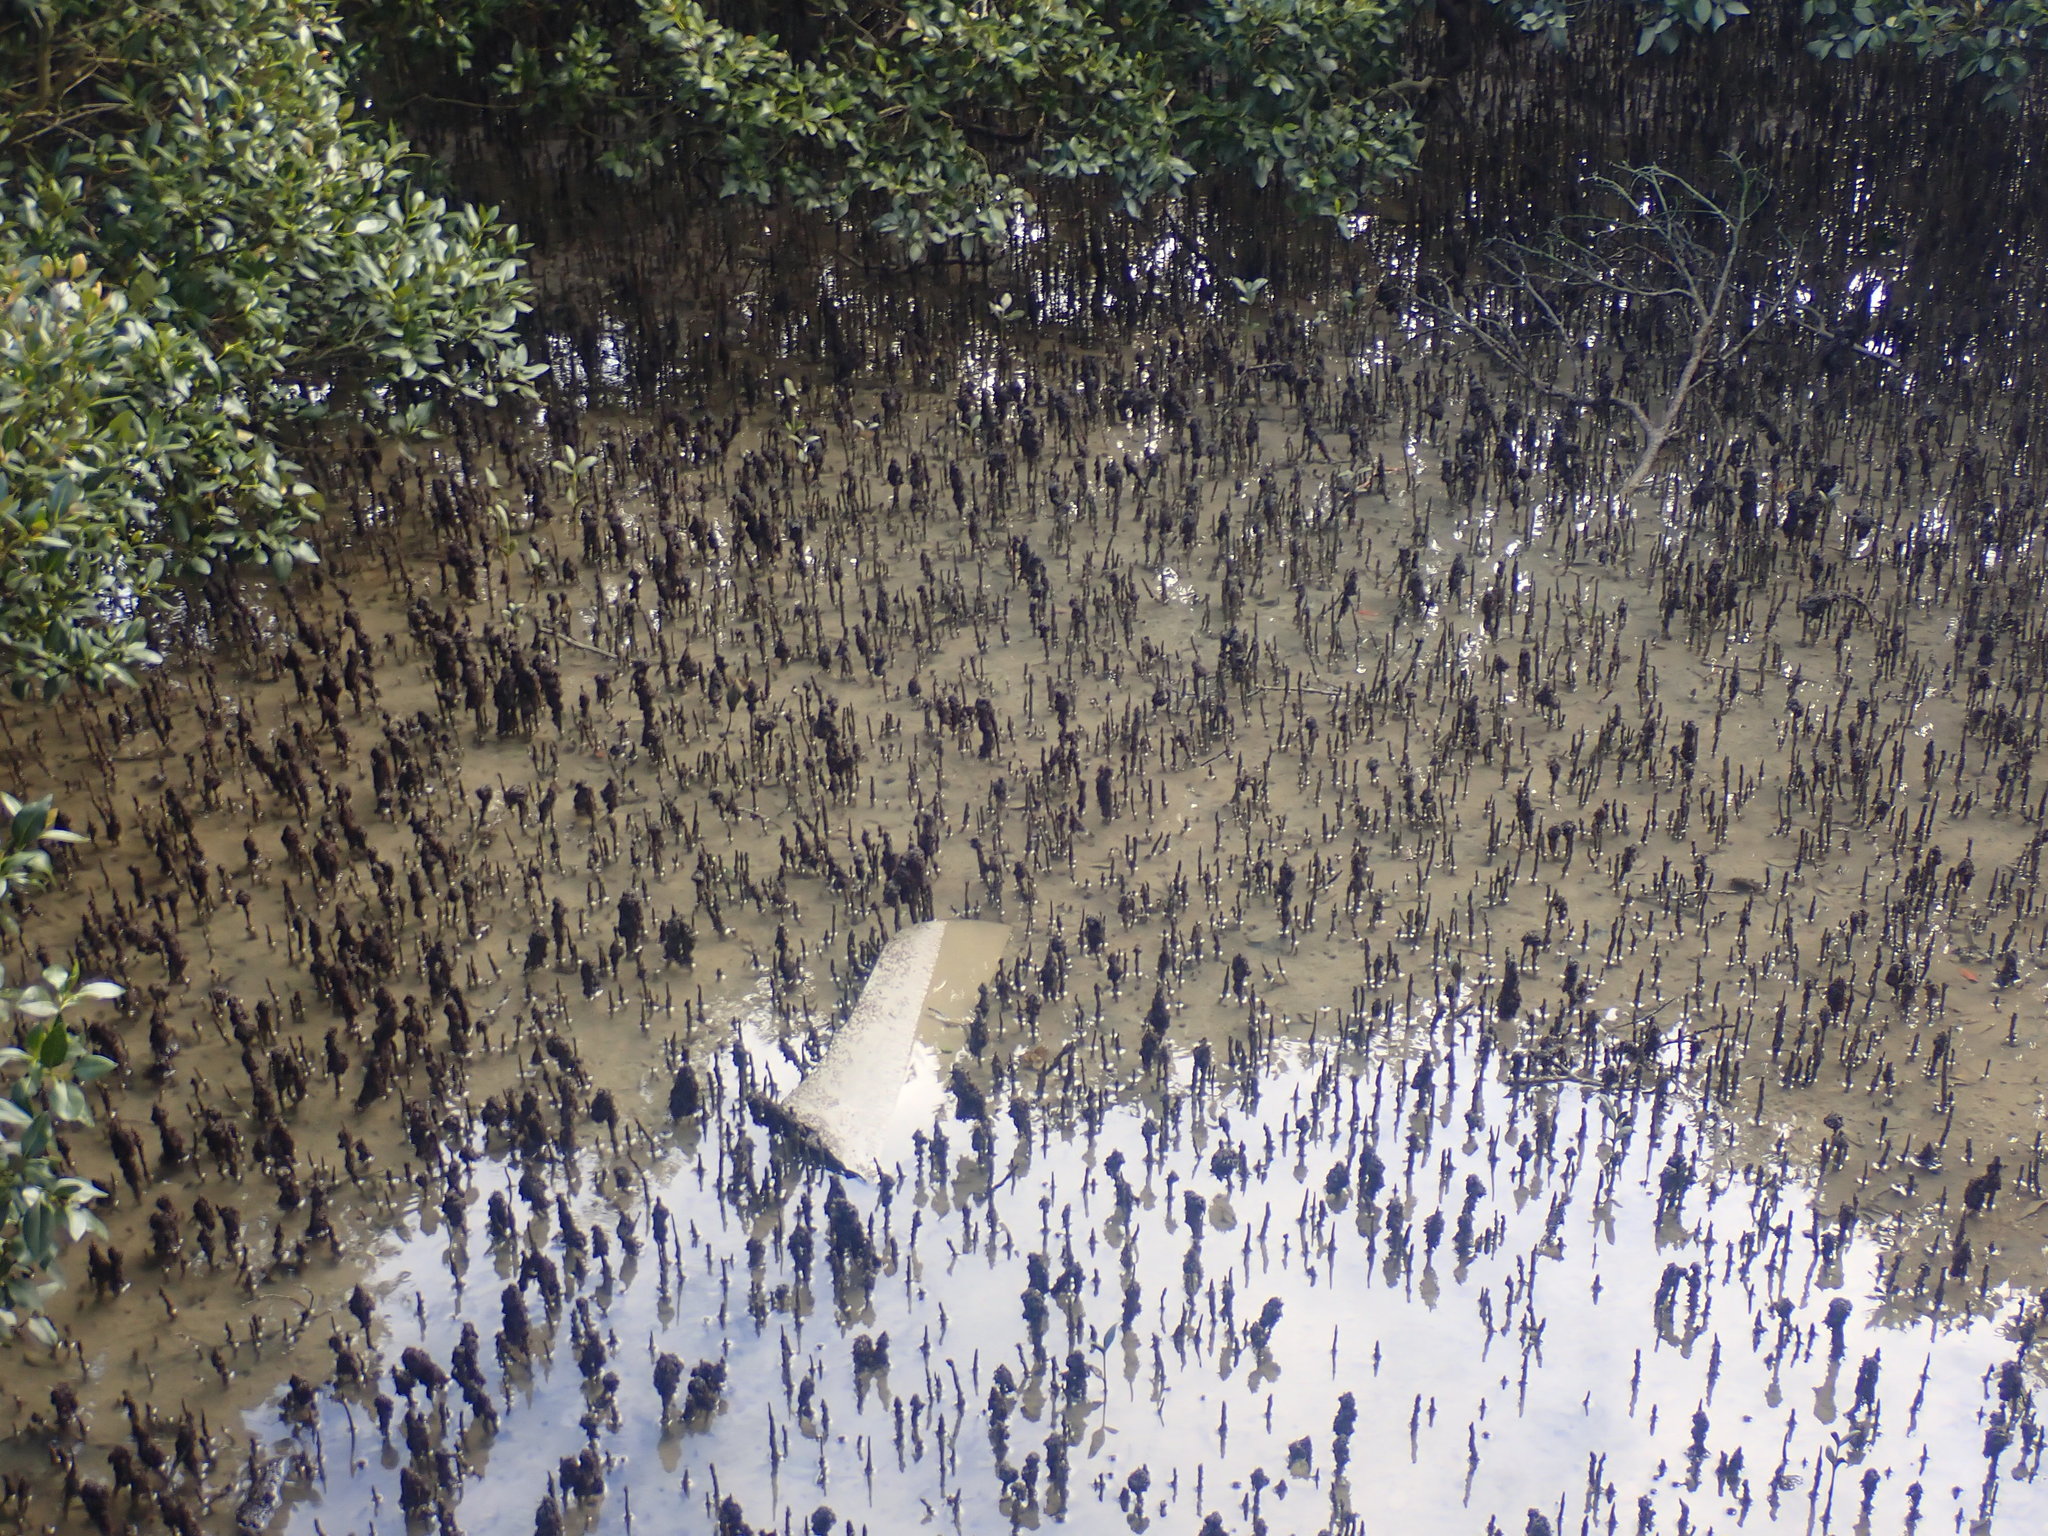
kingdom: Plantae
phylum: Tracheophyta
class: Magnoliopsida
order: Lamiales
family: Acanthaceae
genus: Avicennia
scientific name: Avicennia marina
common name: Gray mangrove
